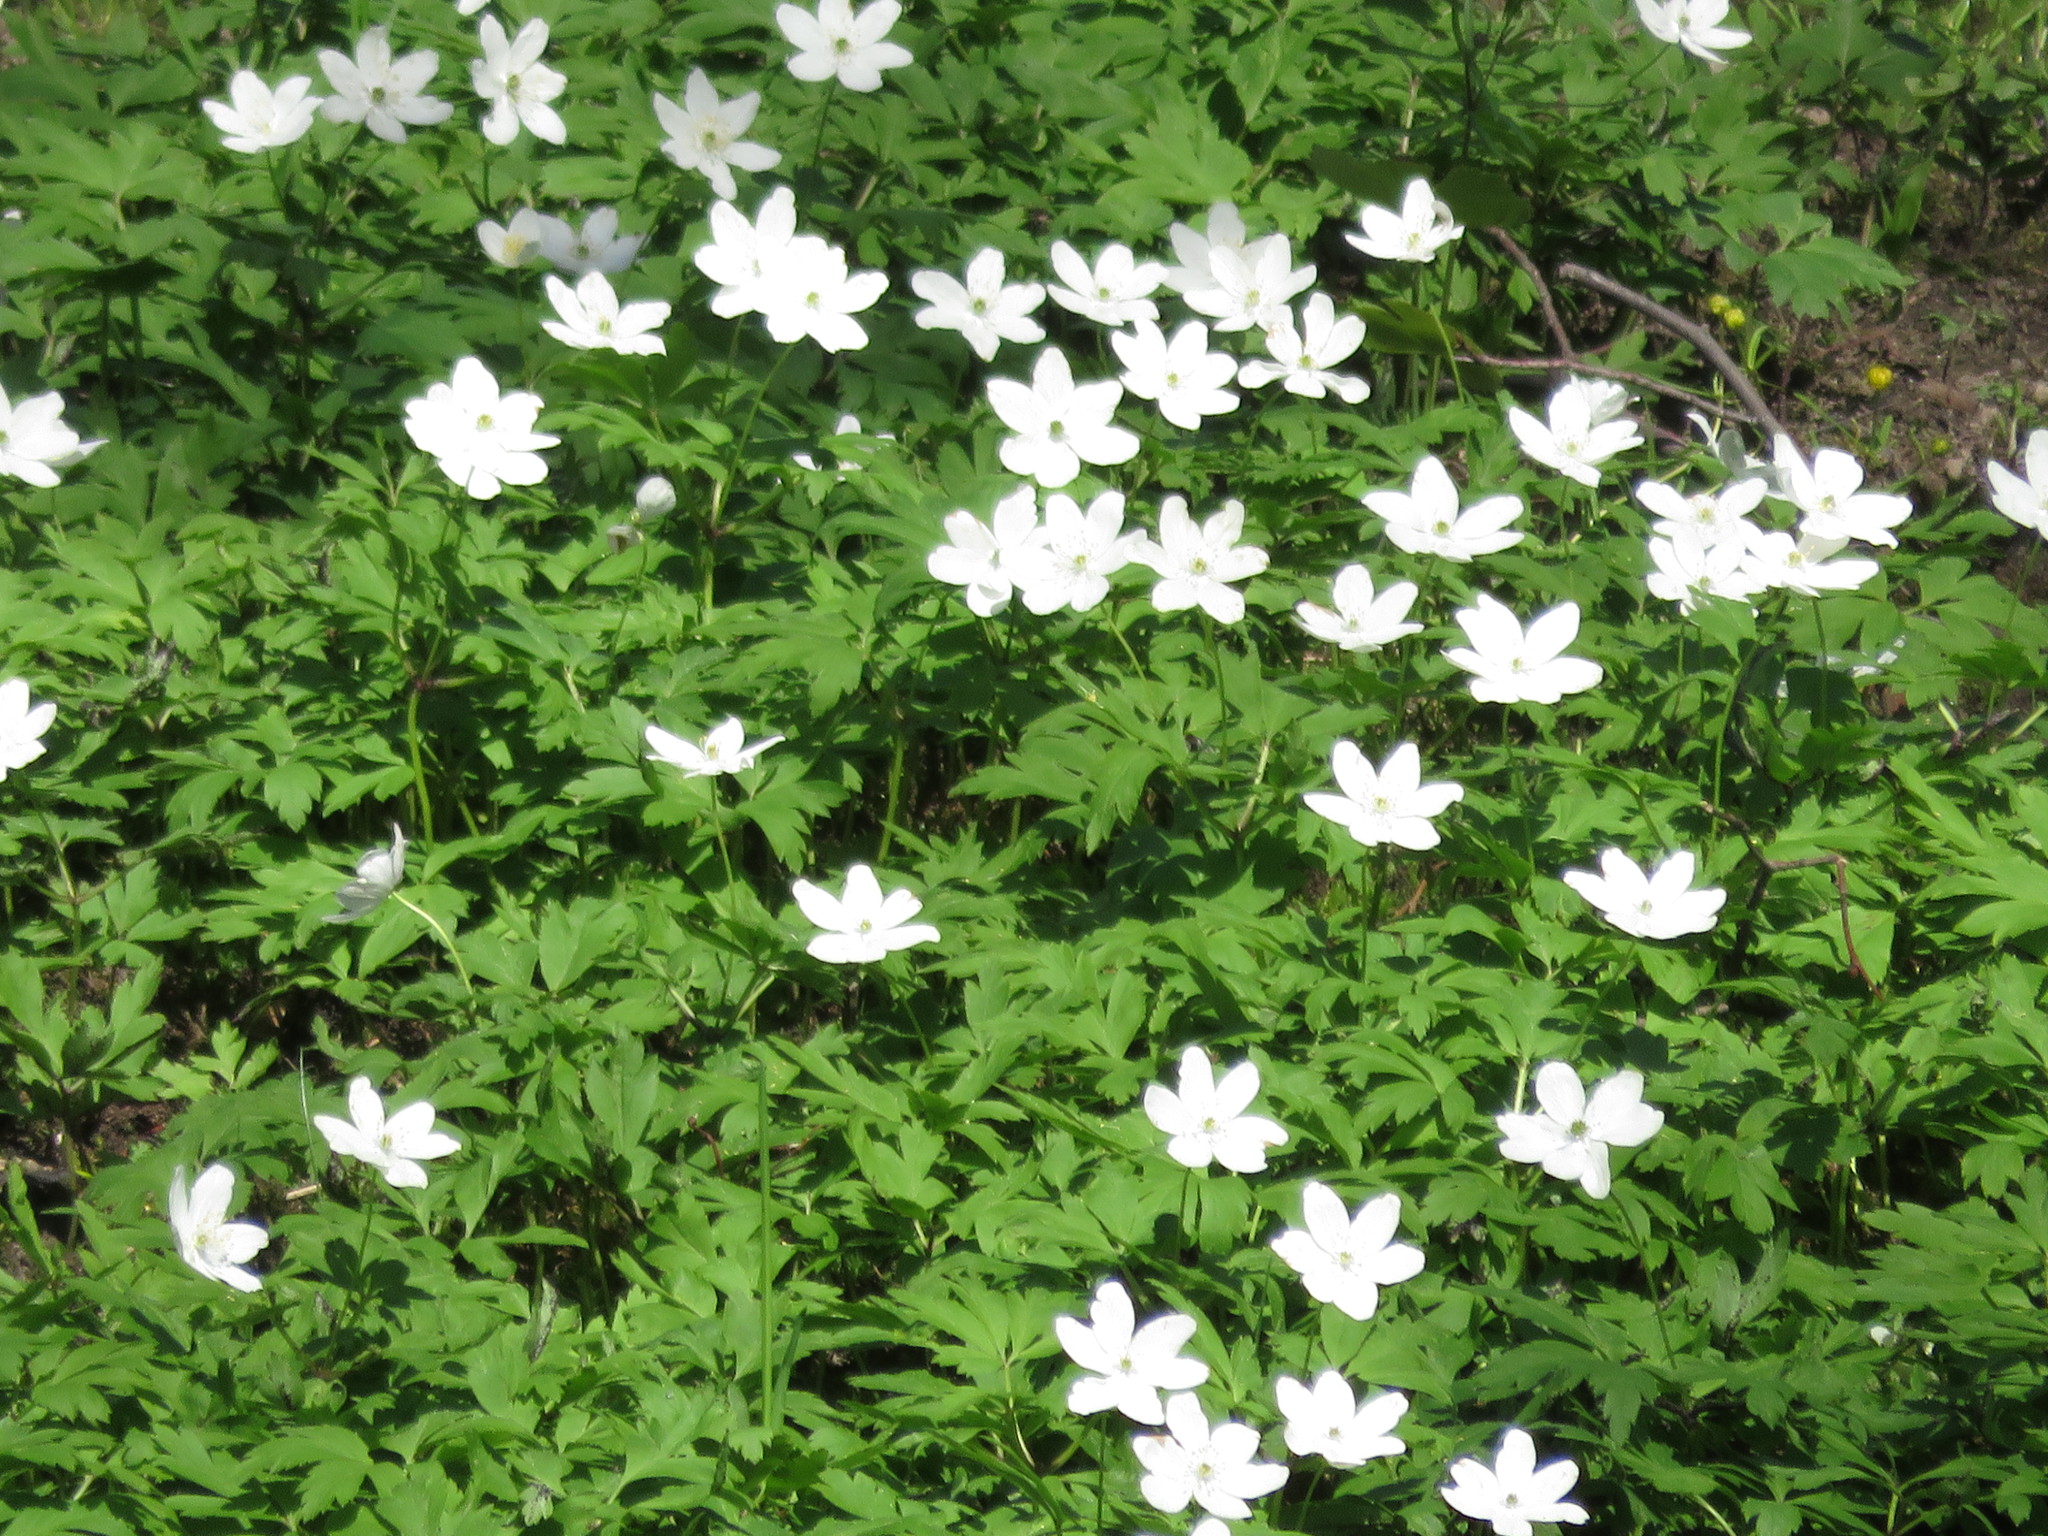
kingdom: Plantae
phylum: Tracheophyta
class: Magnoliopsida
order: Ranunculales
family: Ranunculaceae
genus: Anemone
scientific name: Anemone nemorosa
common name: Wood anemone
